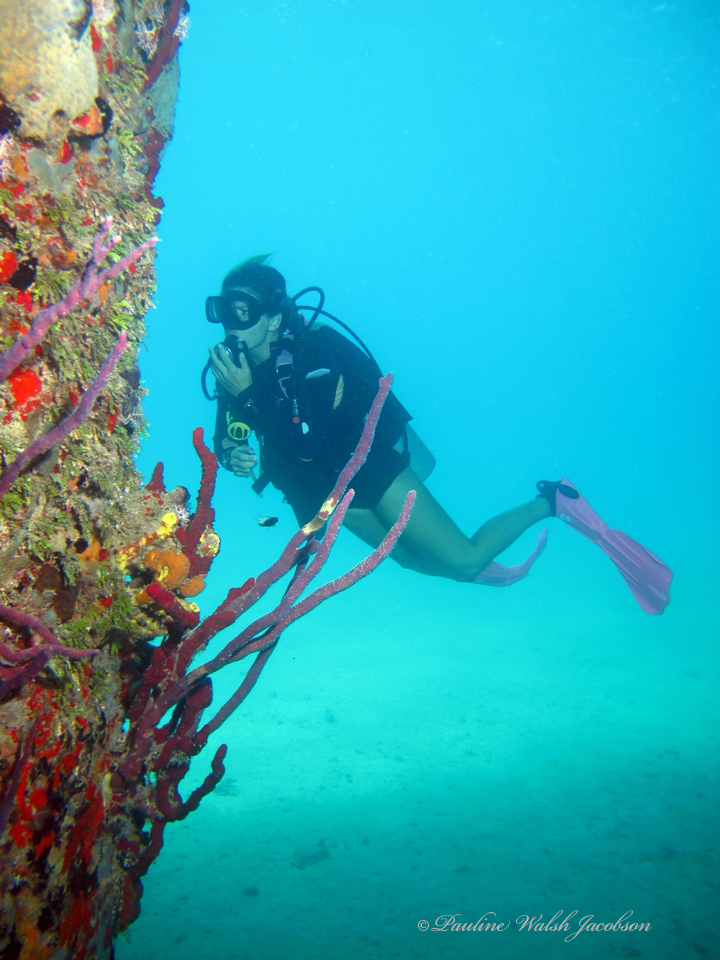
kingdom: Animalia
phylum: Porifera
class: Demospongiae
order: Verongiida
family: Aplysinidae
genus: Aplysina
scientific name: Aplysina cauliformis
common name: Branching candle sponge
